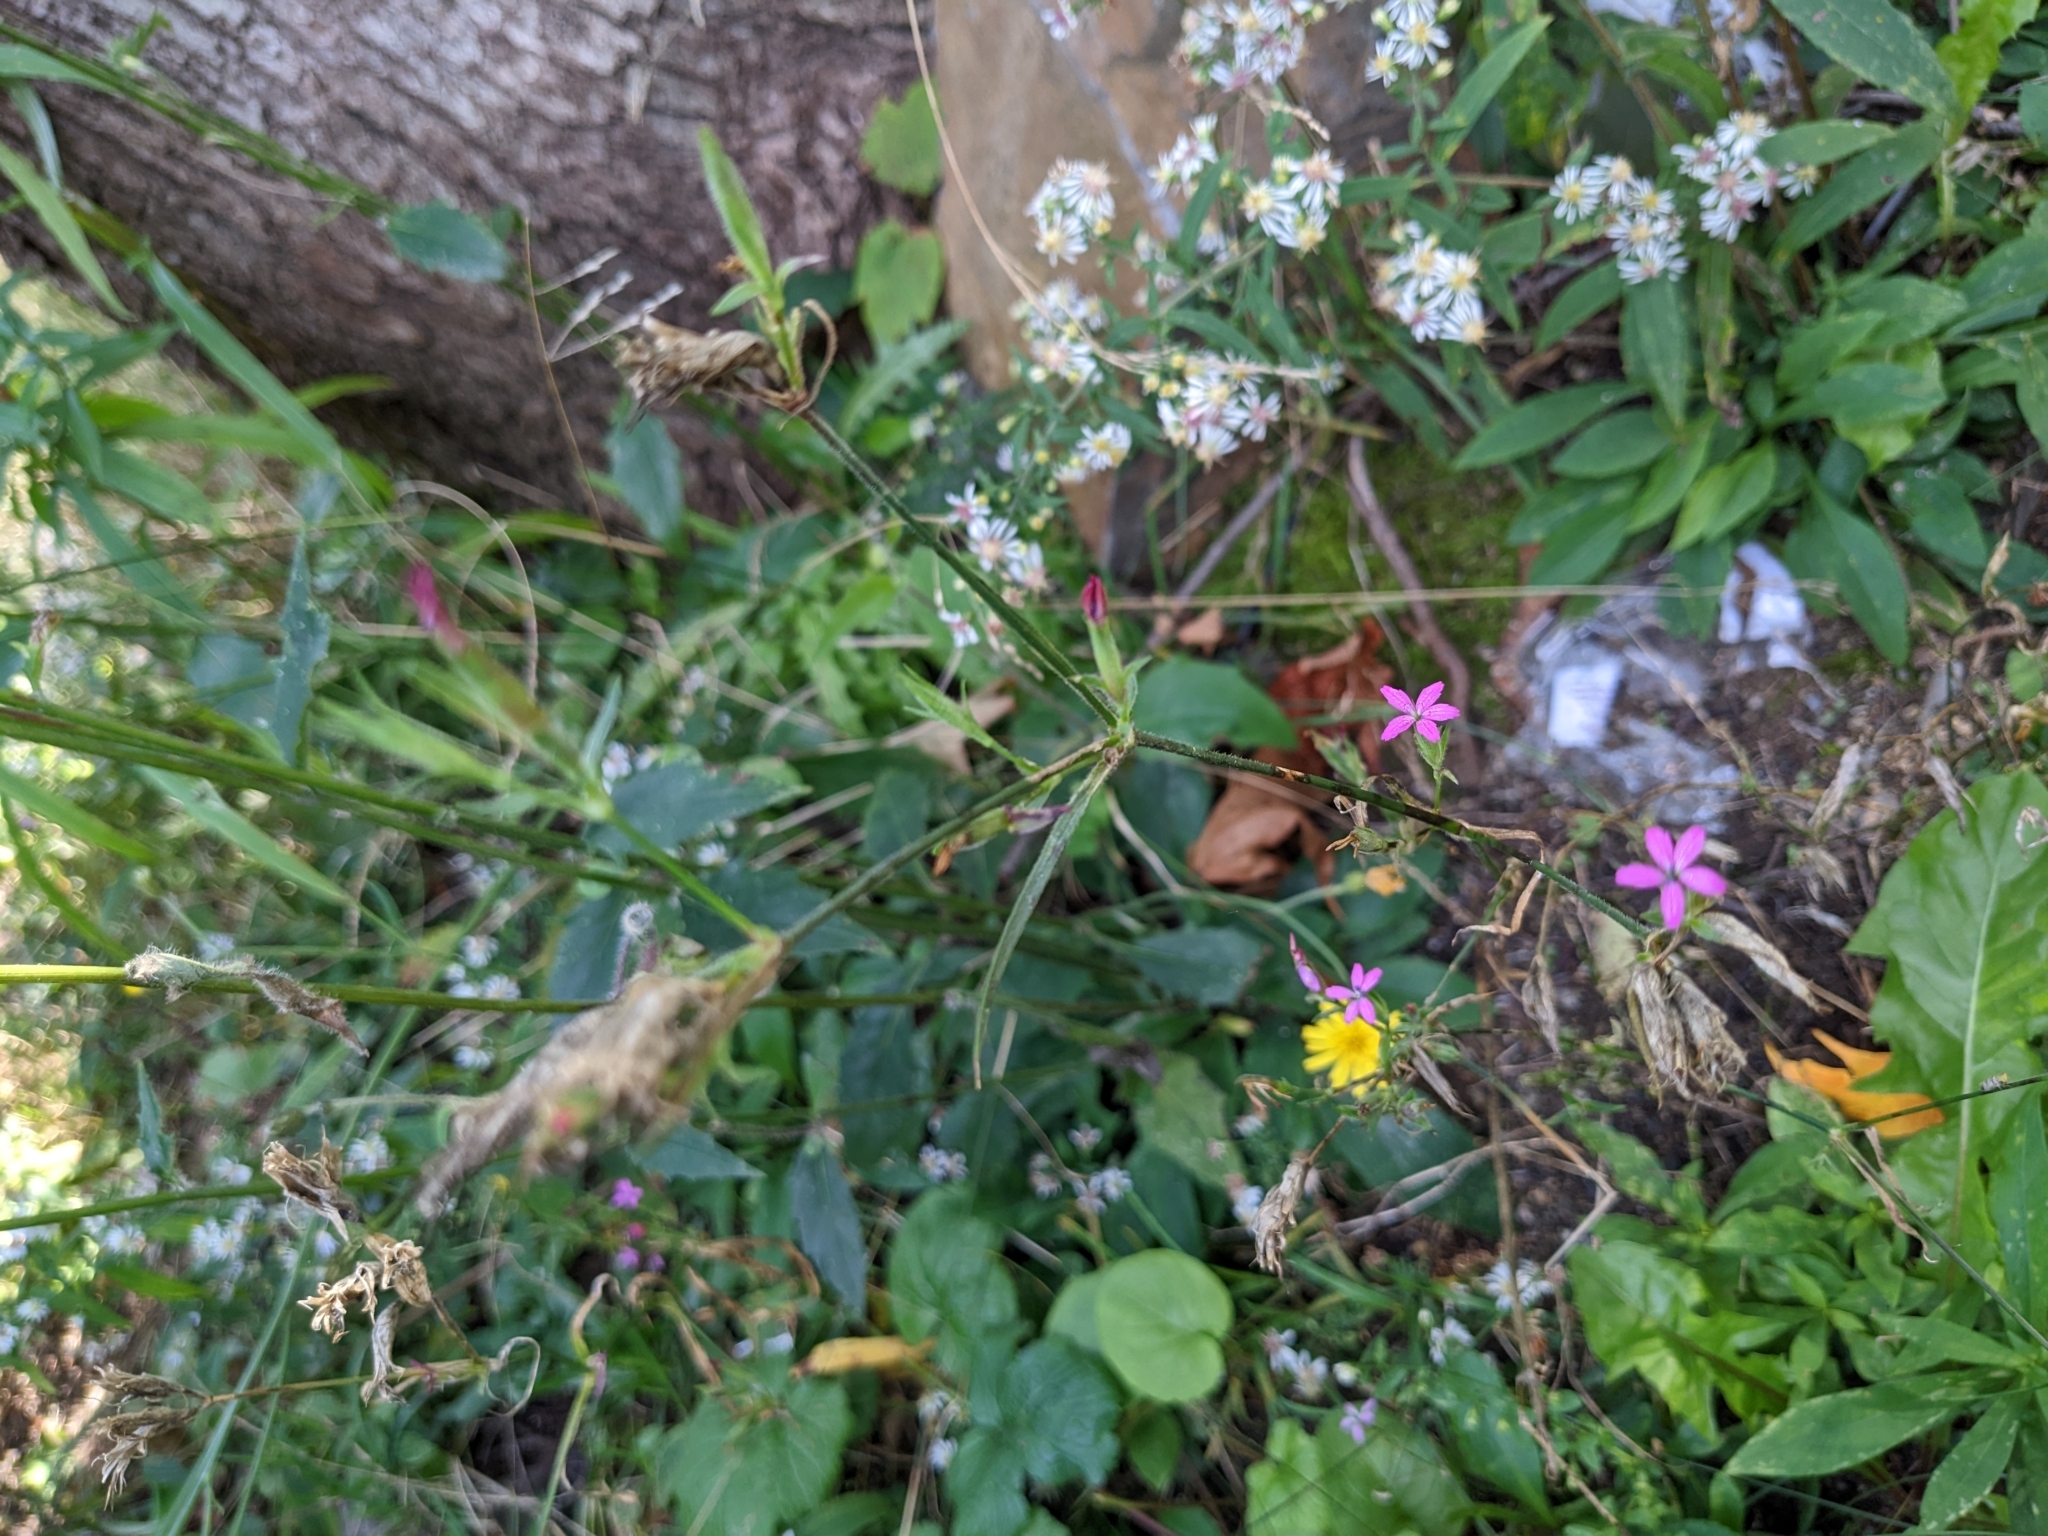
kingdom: Plantae
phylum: Tracheophyta
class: Magnoliopsida
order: Caryophyllales
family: Caryophyllaceae
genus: Dianthus
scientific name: Dianthus armeria
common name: Deptford pink
